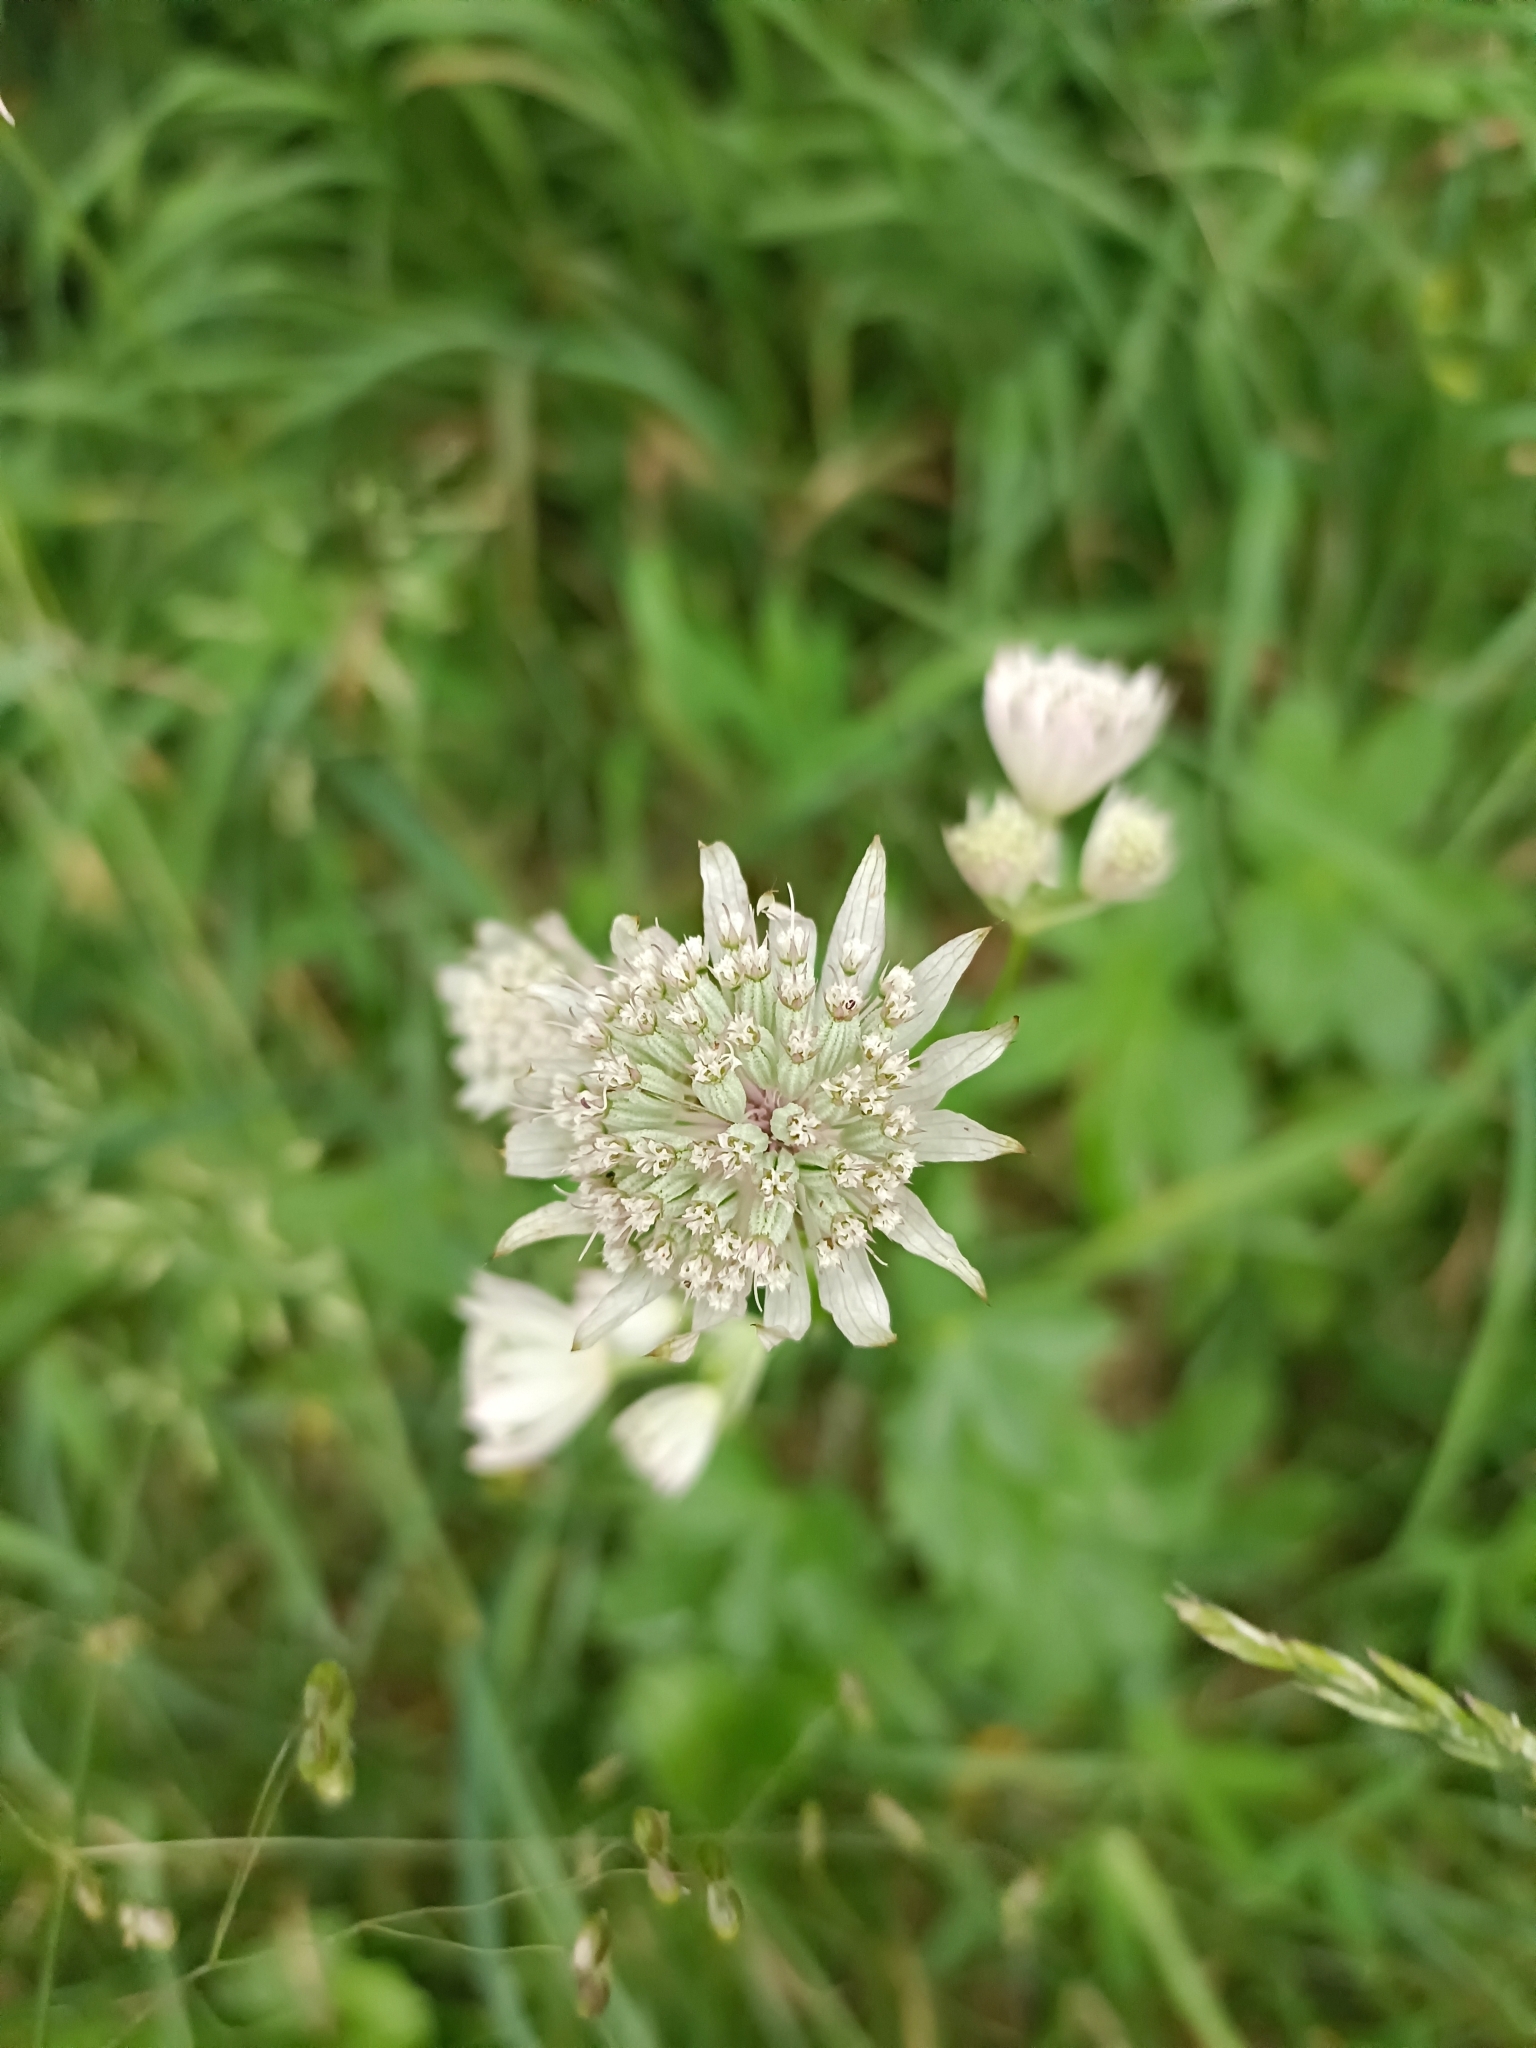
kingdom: Plantae
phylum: Tracheophyta
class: Magnoliopsida
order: Apiales
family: Apiaceae
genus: Astrantia
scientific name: Astrantia major
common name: Greater masterwort
